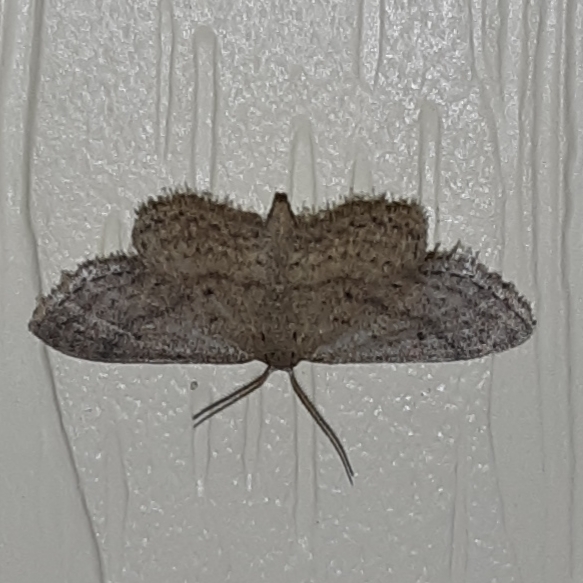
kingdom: Animalia
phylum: Arthropoda
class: Insecta
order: Lepidoptera
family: Geometridae
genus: Lobocleta
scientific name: Lobocleta ossularia
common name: Drab brown wave
